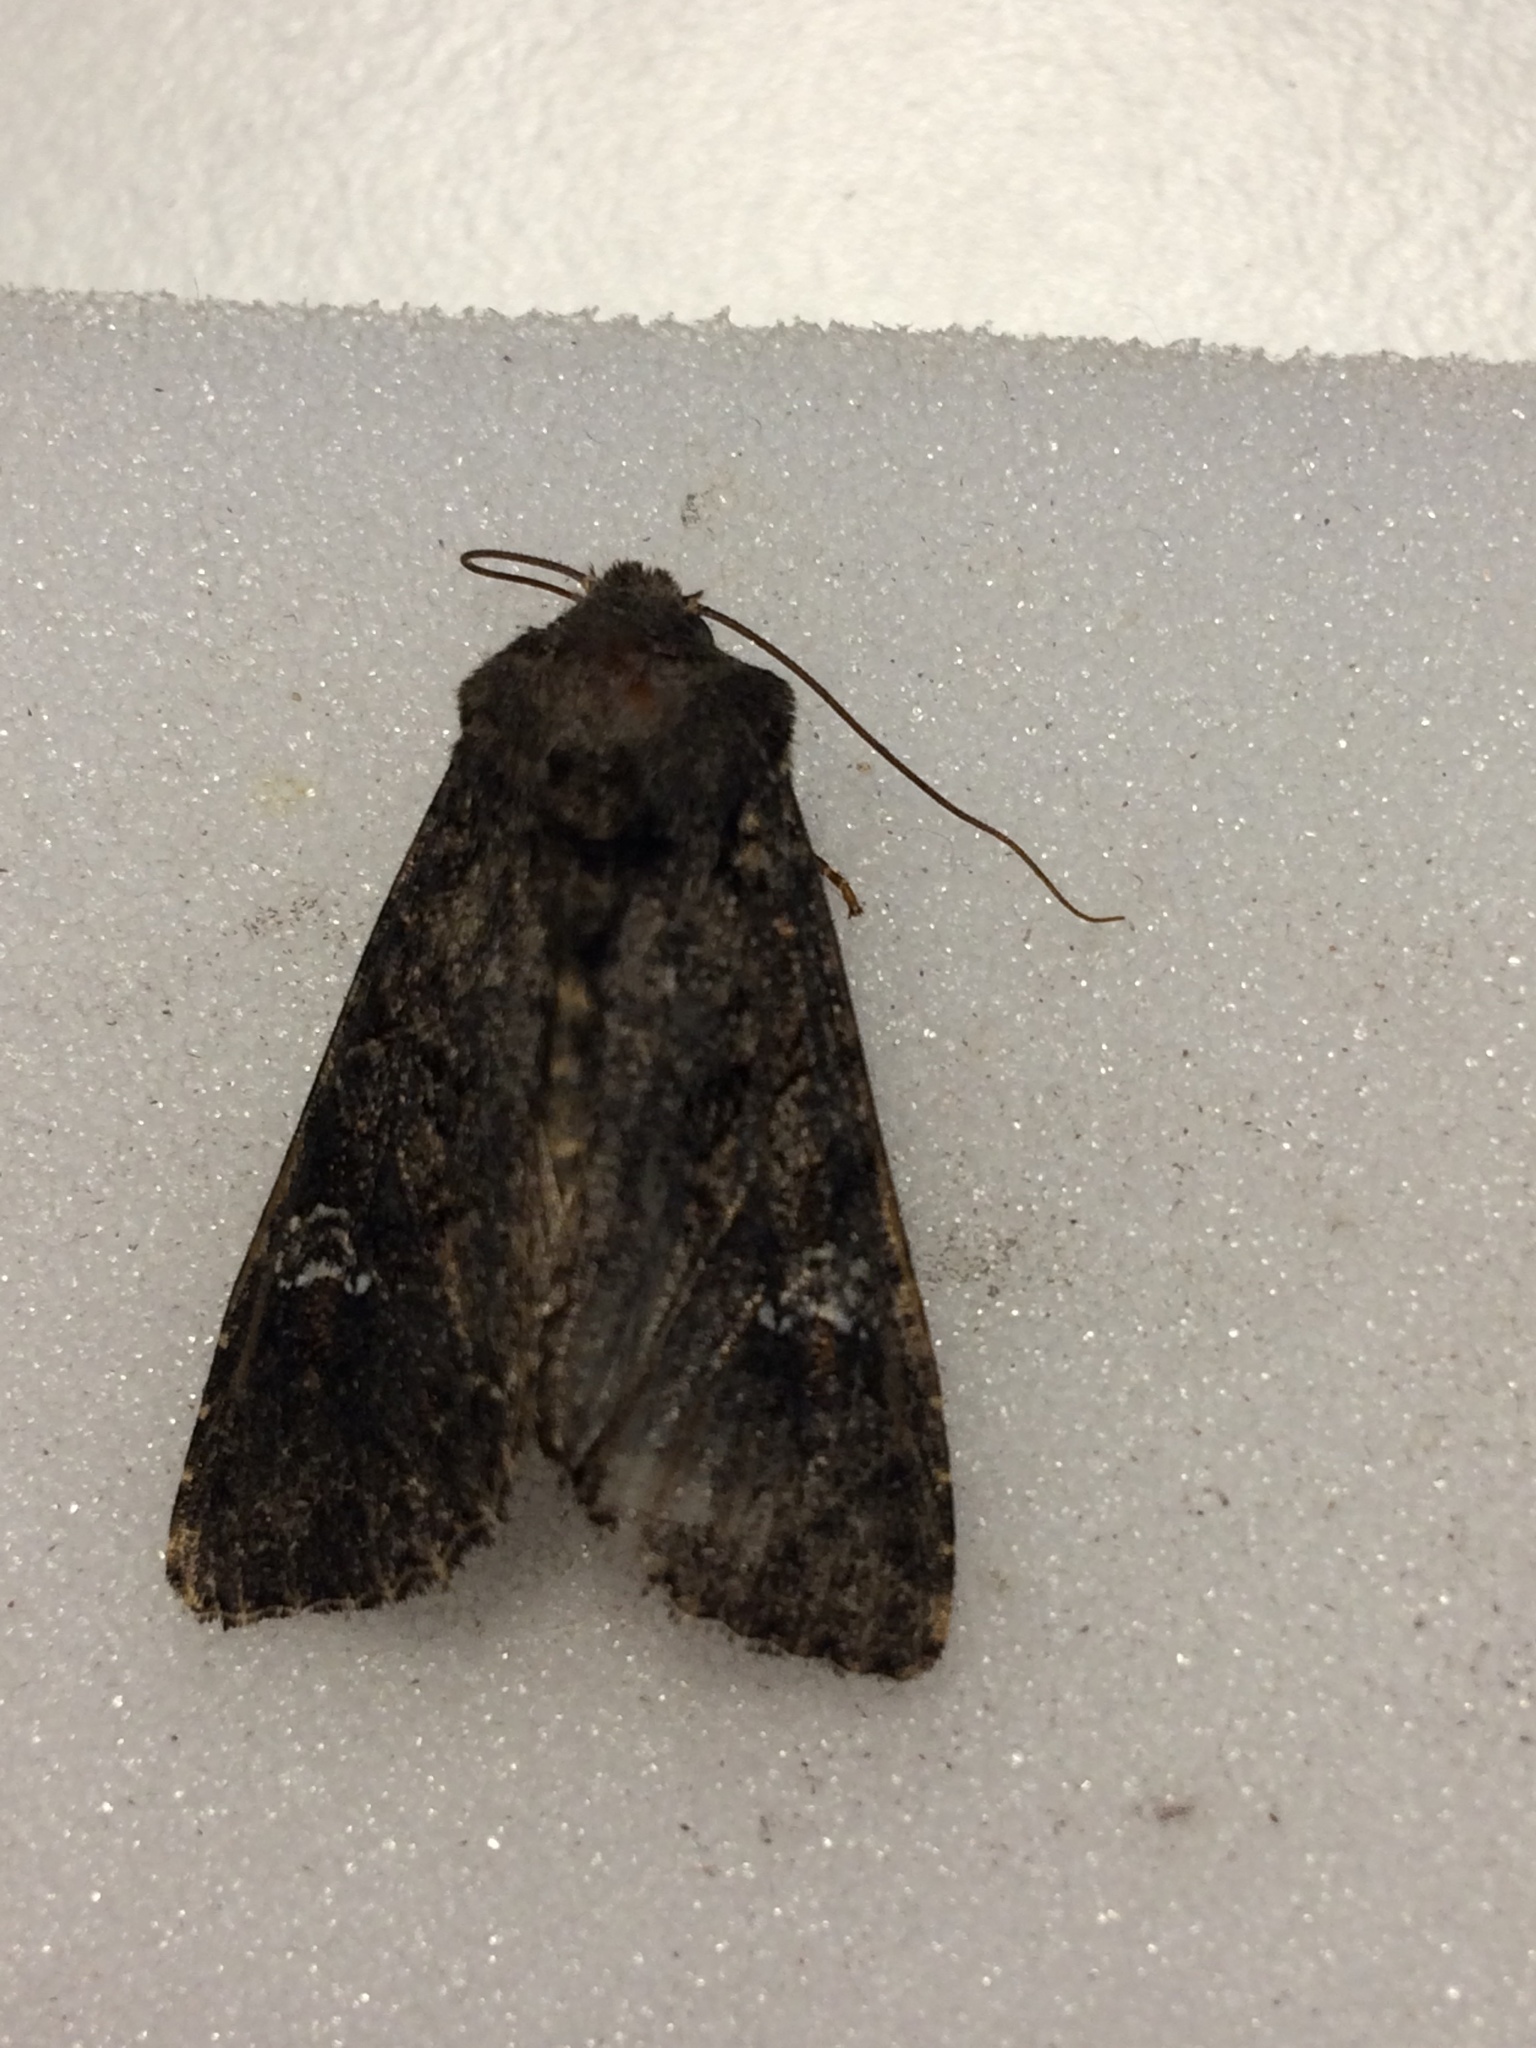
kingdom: Animalia
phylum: Arthropoda
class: Insecta
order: Lepidoptera
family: Noctuidae
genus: Mamestra
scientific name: Mamestra brassicae
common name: Cabbage moth
